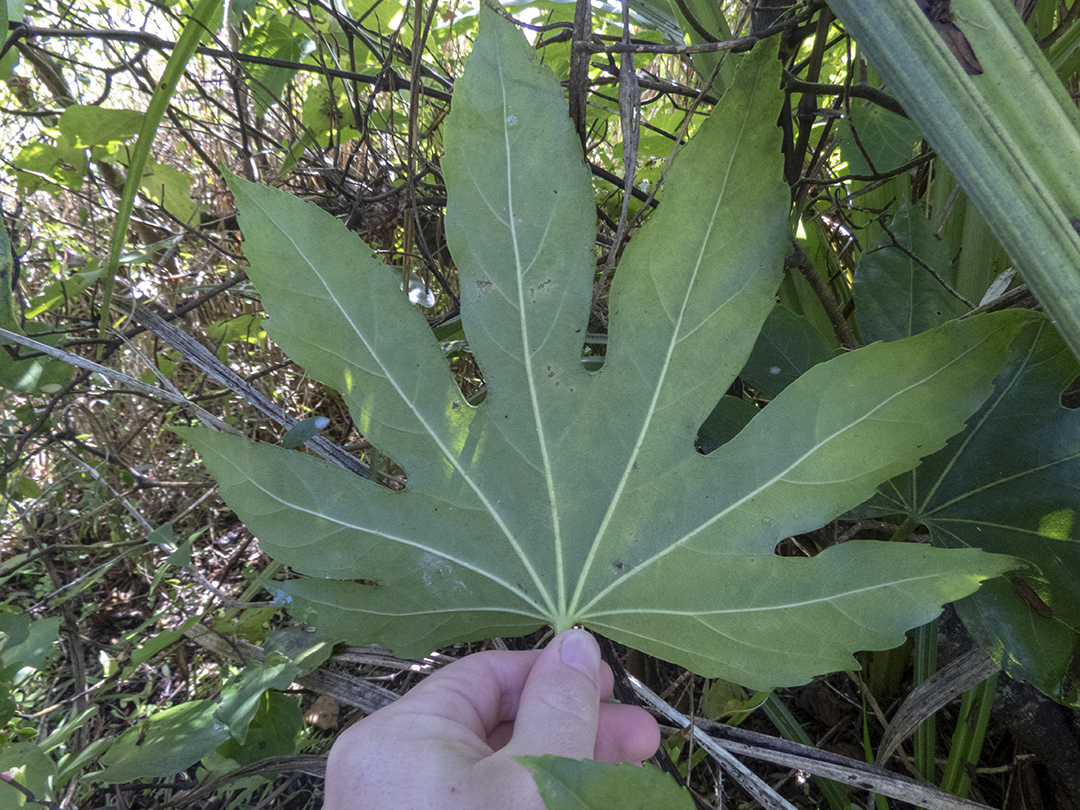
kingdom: Plantae
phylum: Tracheophyta
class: Magnoliopsida
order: Apiales
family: Araliaceae
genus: Fatsia
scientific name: Fatsia japonica
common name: Fatsia
